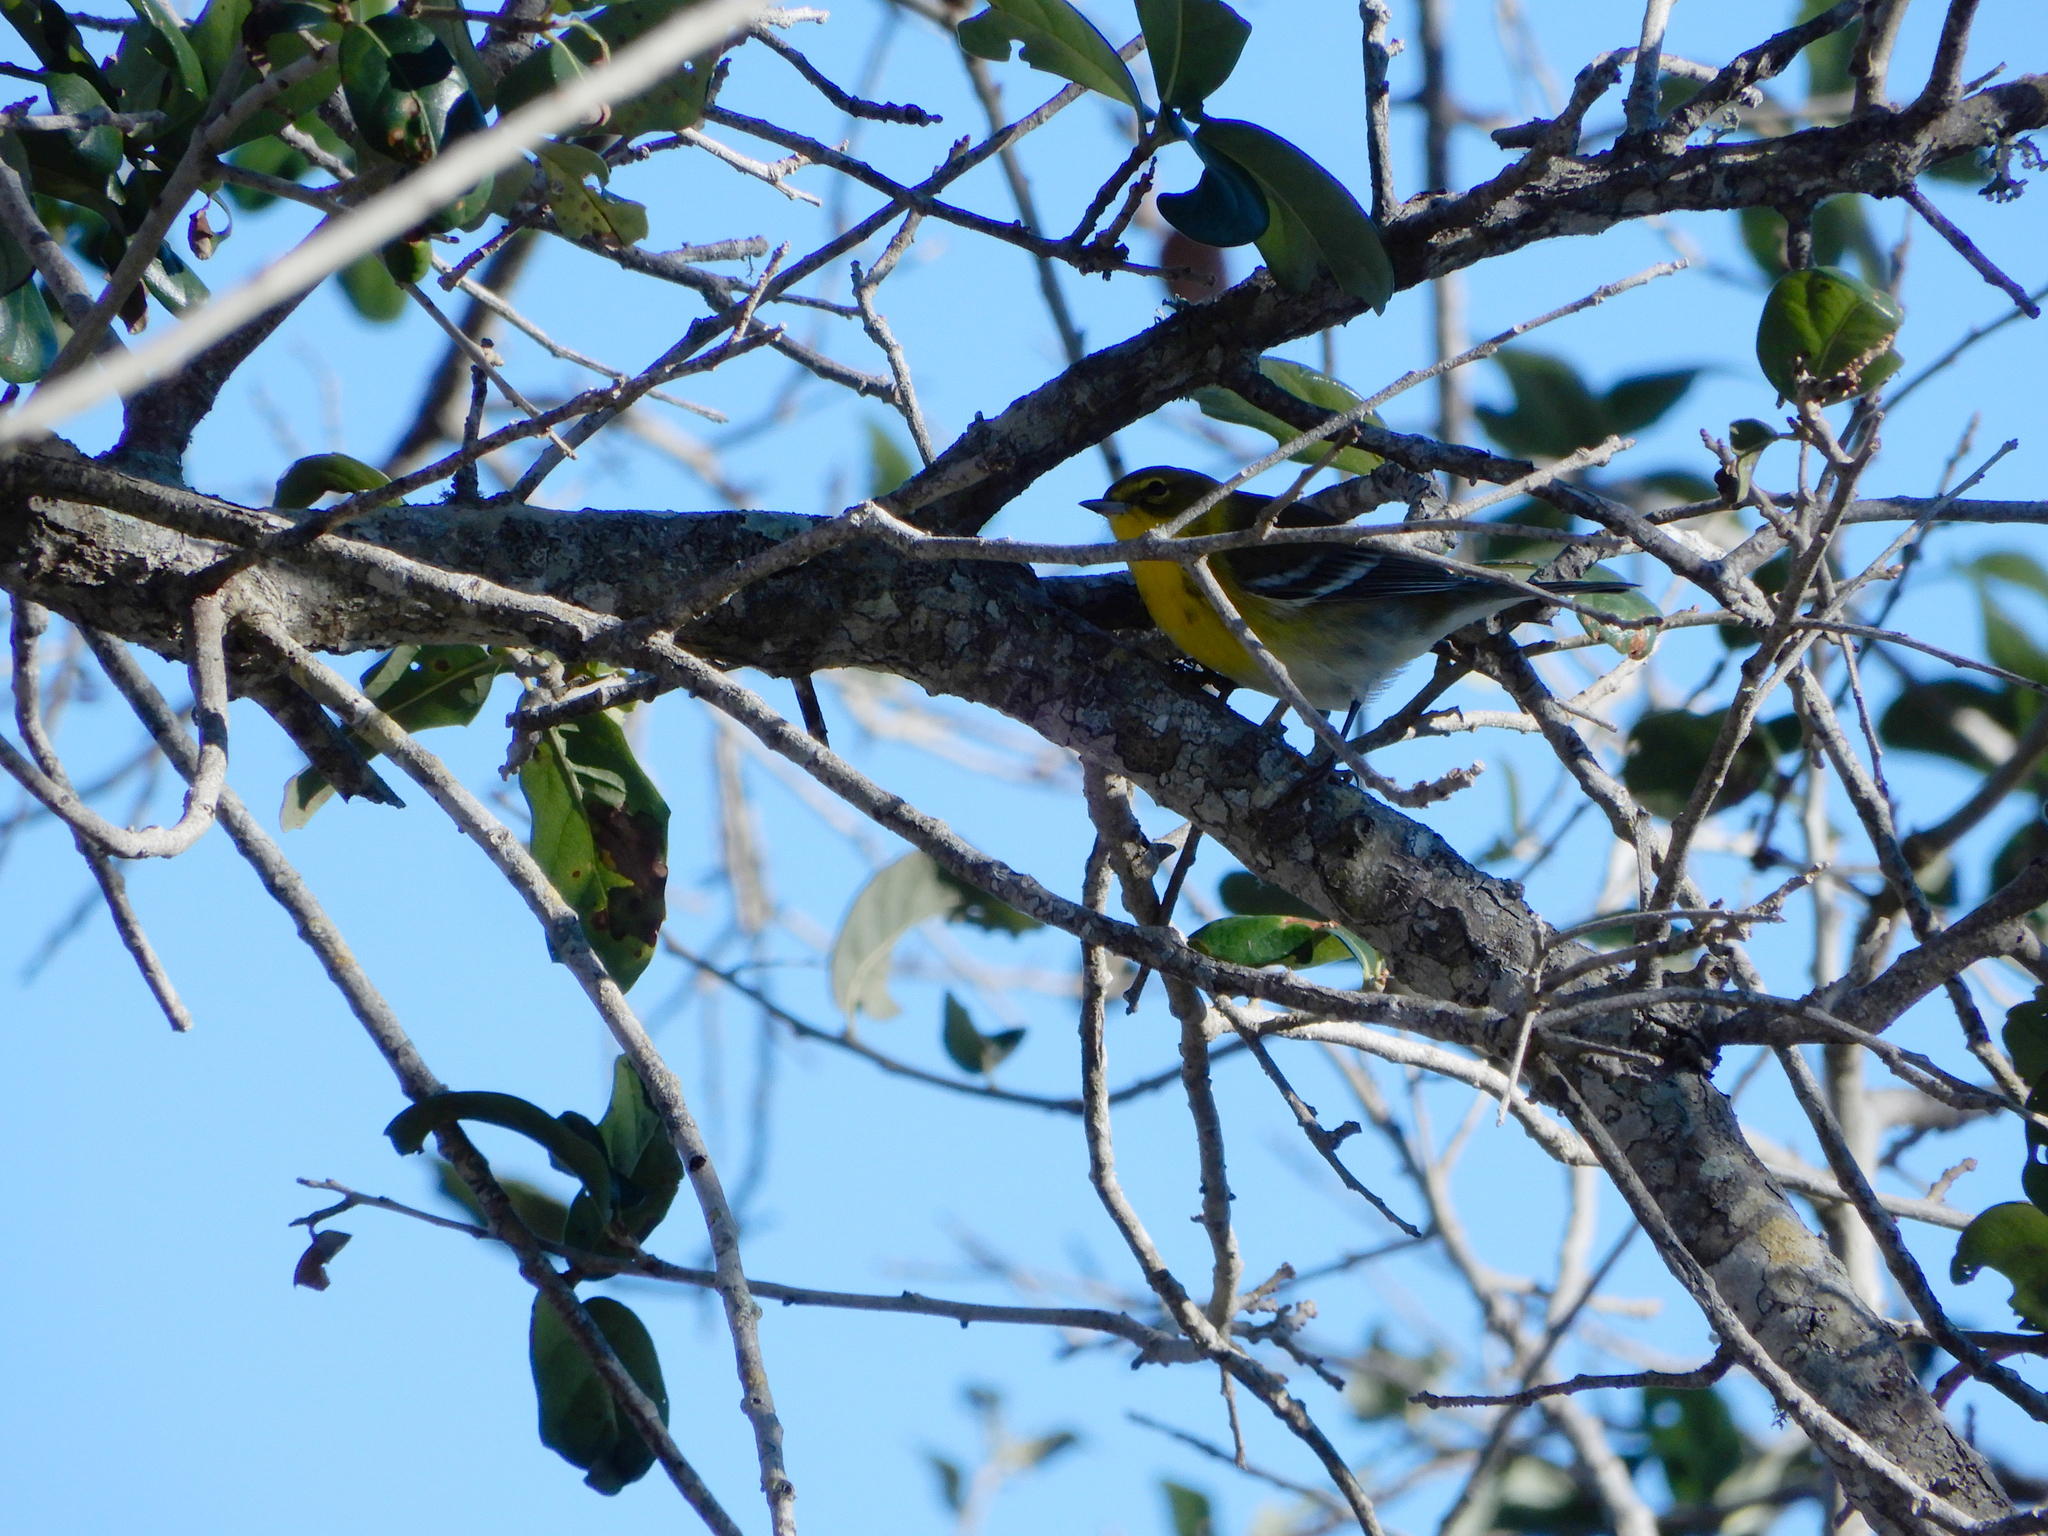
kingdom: Animalia
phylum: Chordata
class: Aves
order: Passeriformes
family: Parulidae
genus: Setophaga
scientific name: Setophaga pinus
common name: Pine warbler
